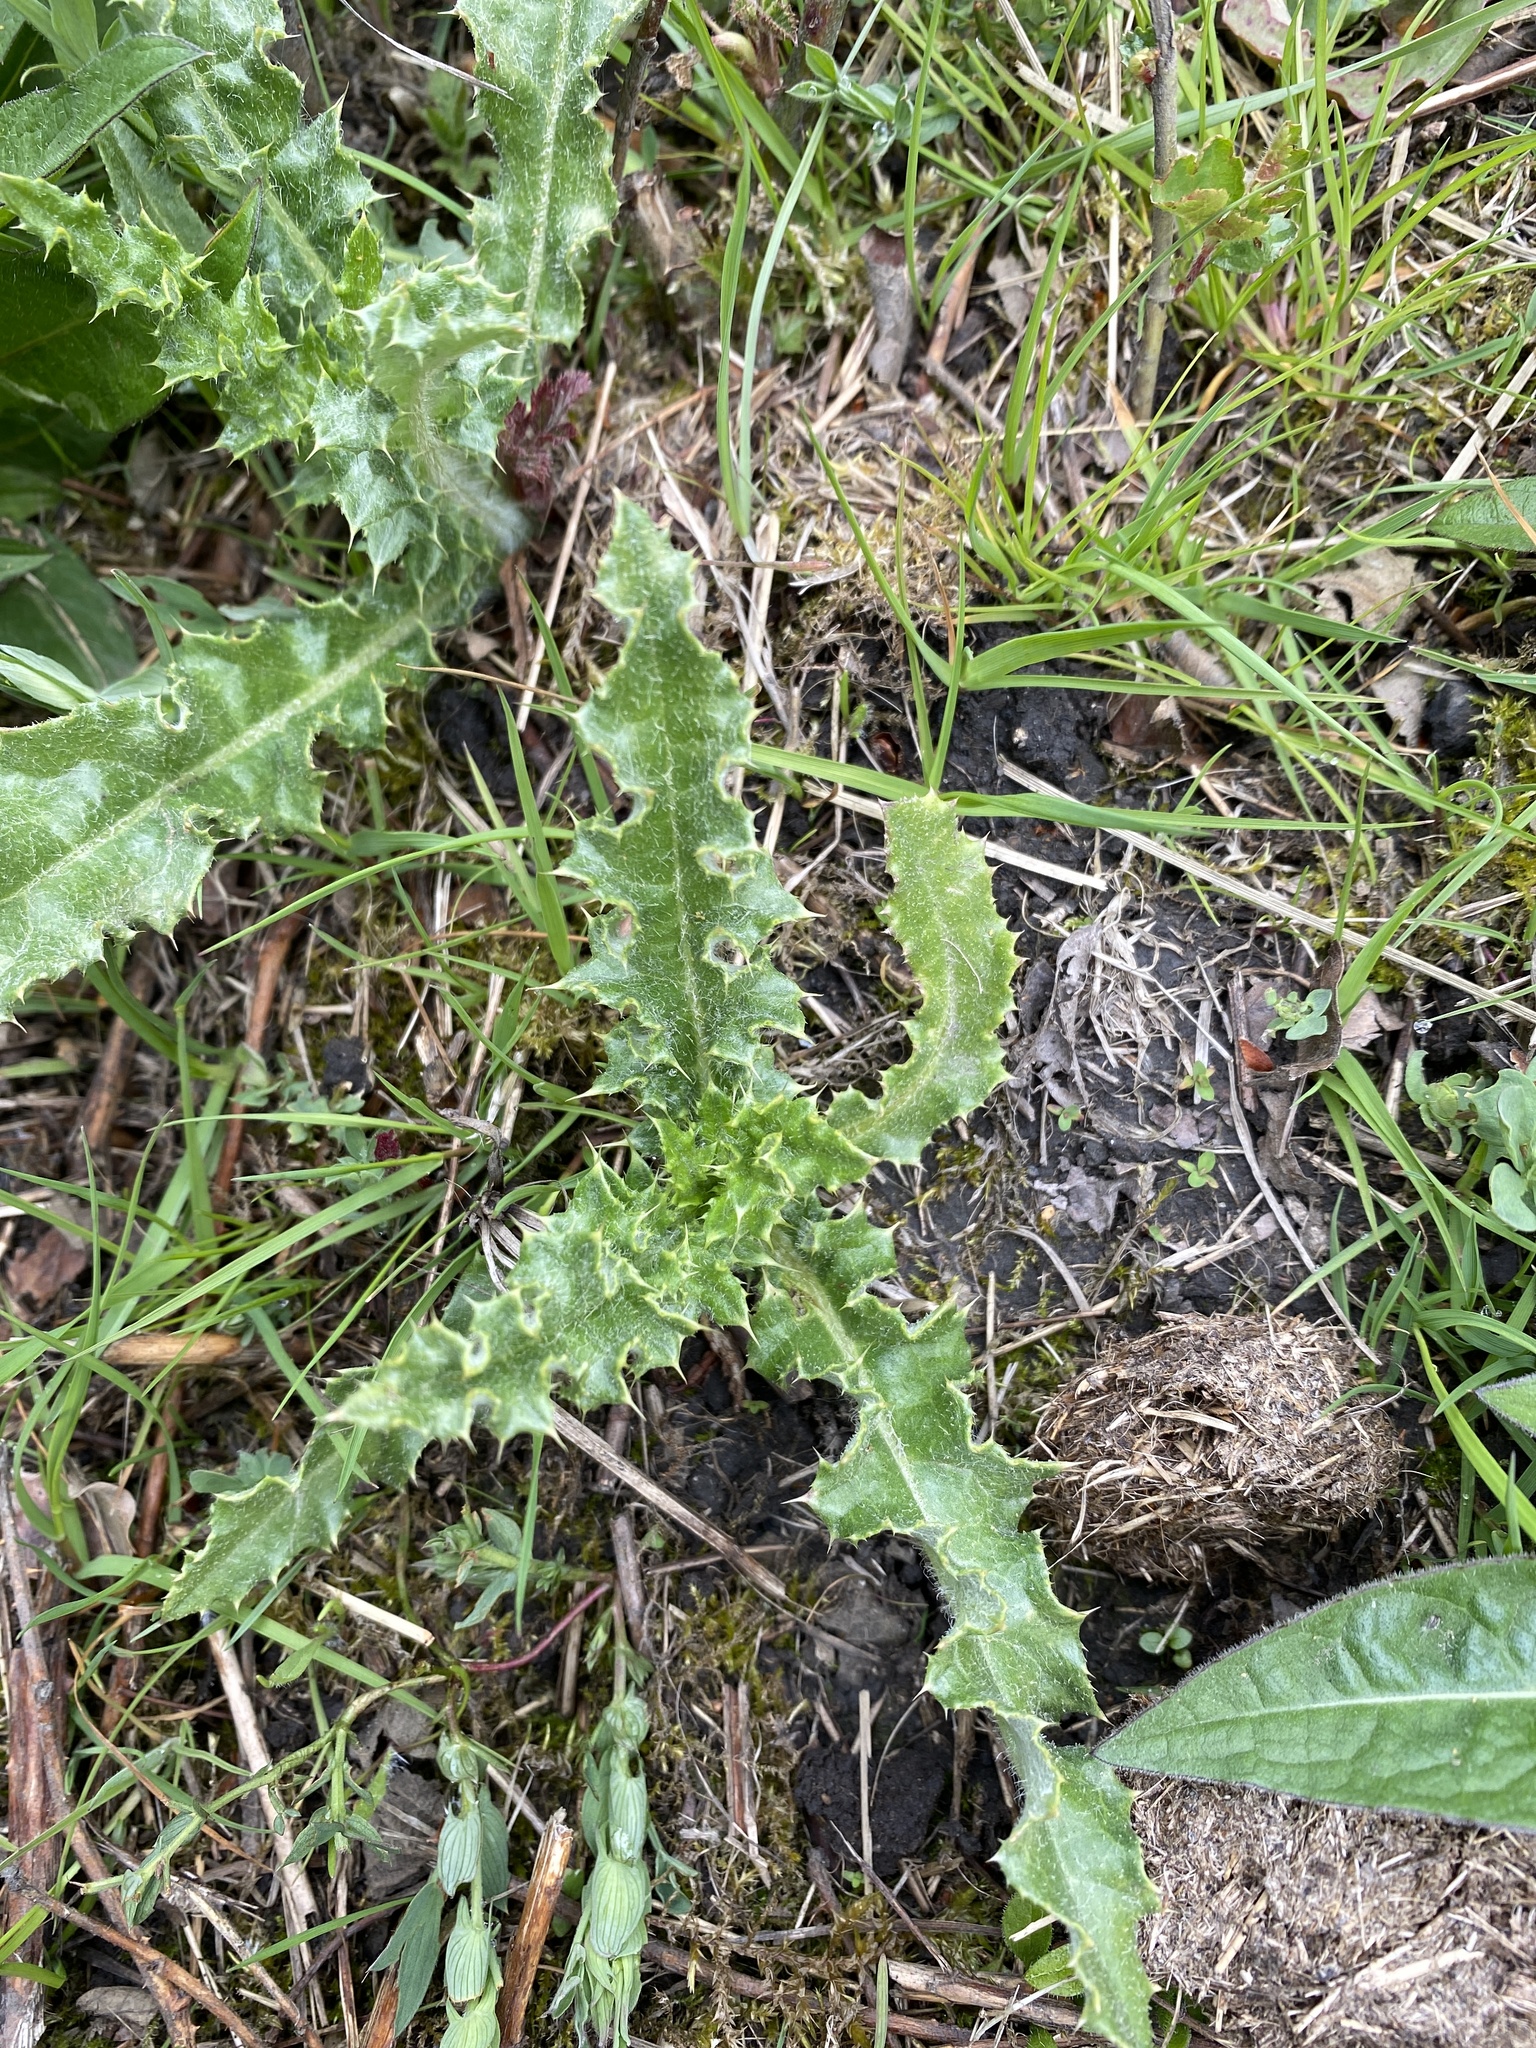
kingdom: Plantae
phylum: Tracheophyta
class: Magnoliopsida
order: Asterales
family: Asteraceae
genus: Cirsium
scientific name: Cirsium arvense
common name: Creeping thistle
